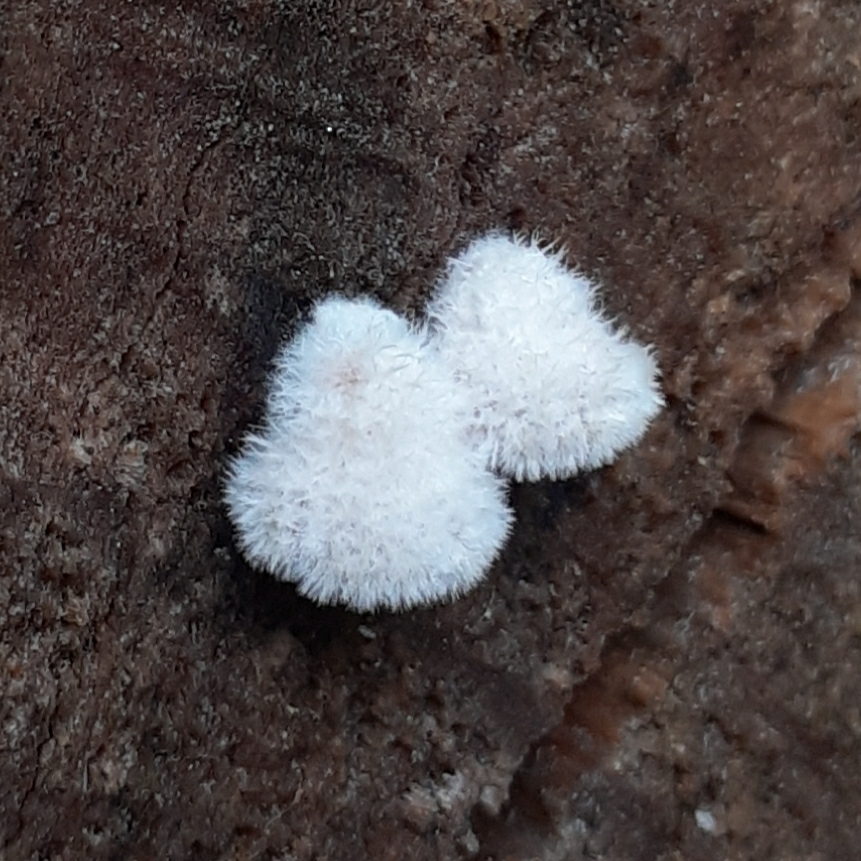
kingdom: Fungi
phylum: Basidiomycota
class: Agaricomycetes
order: Agaricales
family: Schizophyllaceae
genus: Schizophyllum
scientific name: Schizophyllum commune
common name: Common porecrust
